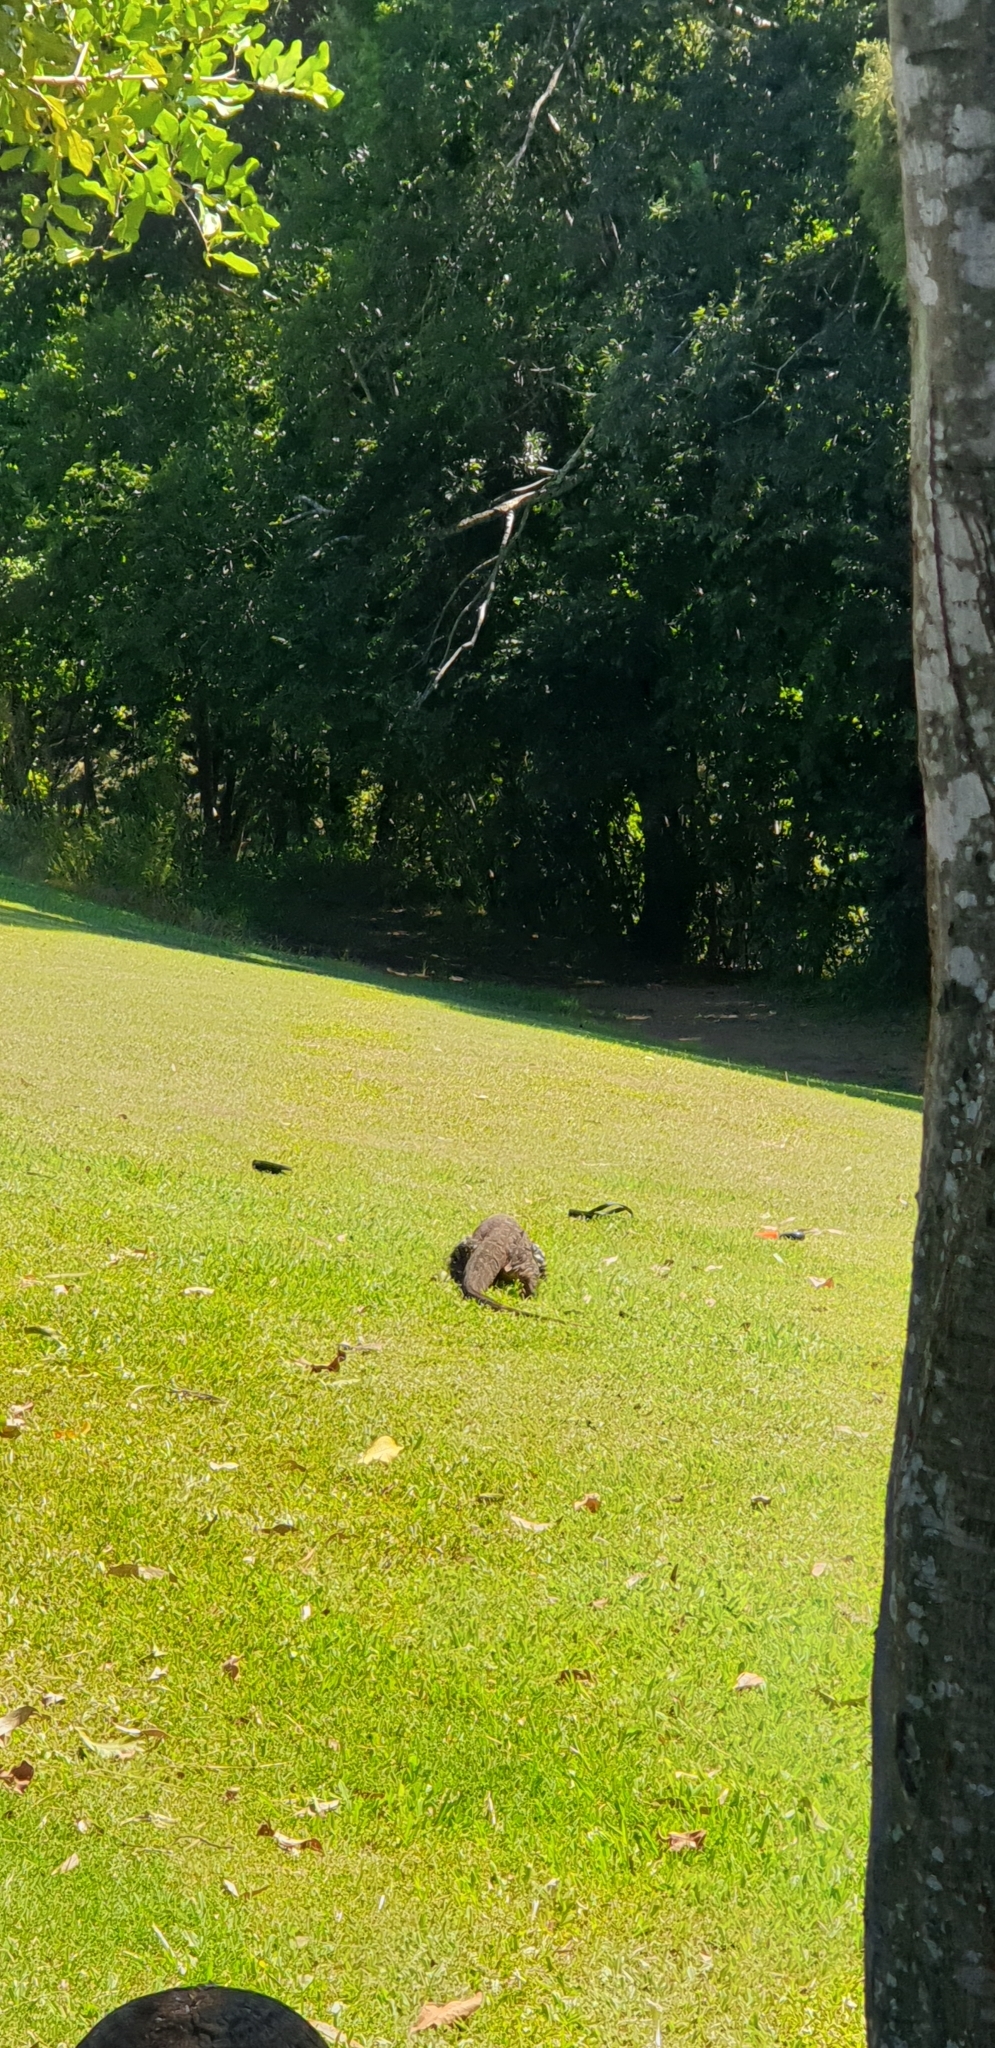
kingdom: Animalia
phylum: Chordata
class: Squamata
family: Varanidae
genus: Varanus
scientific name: Varanus varius
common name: Lace monitor
